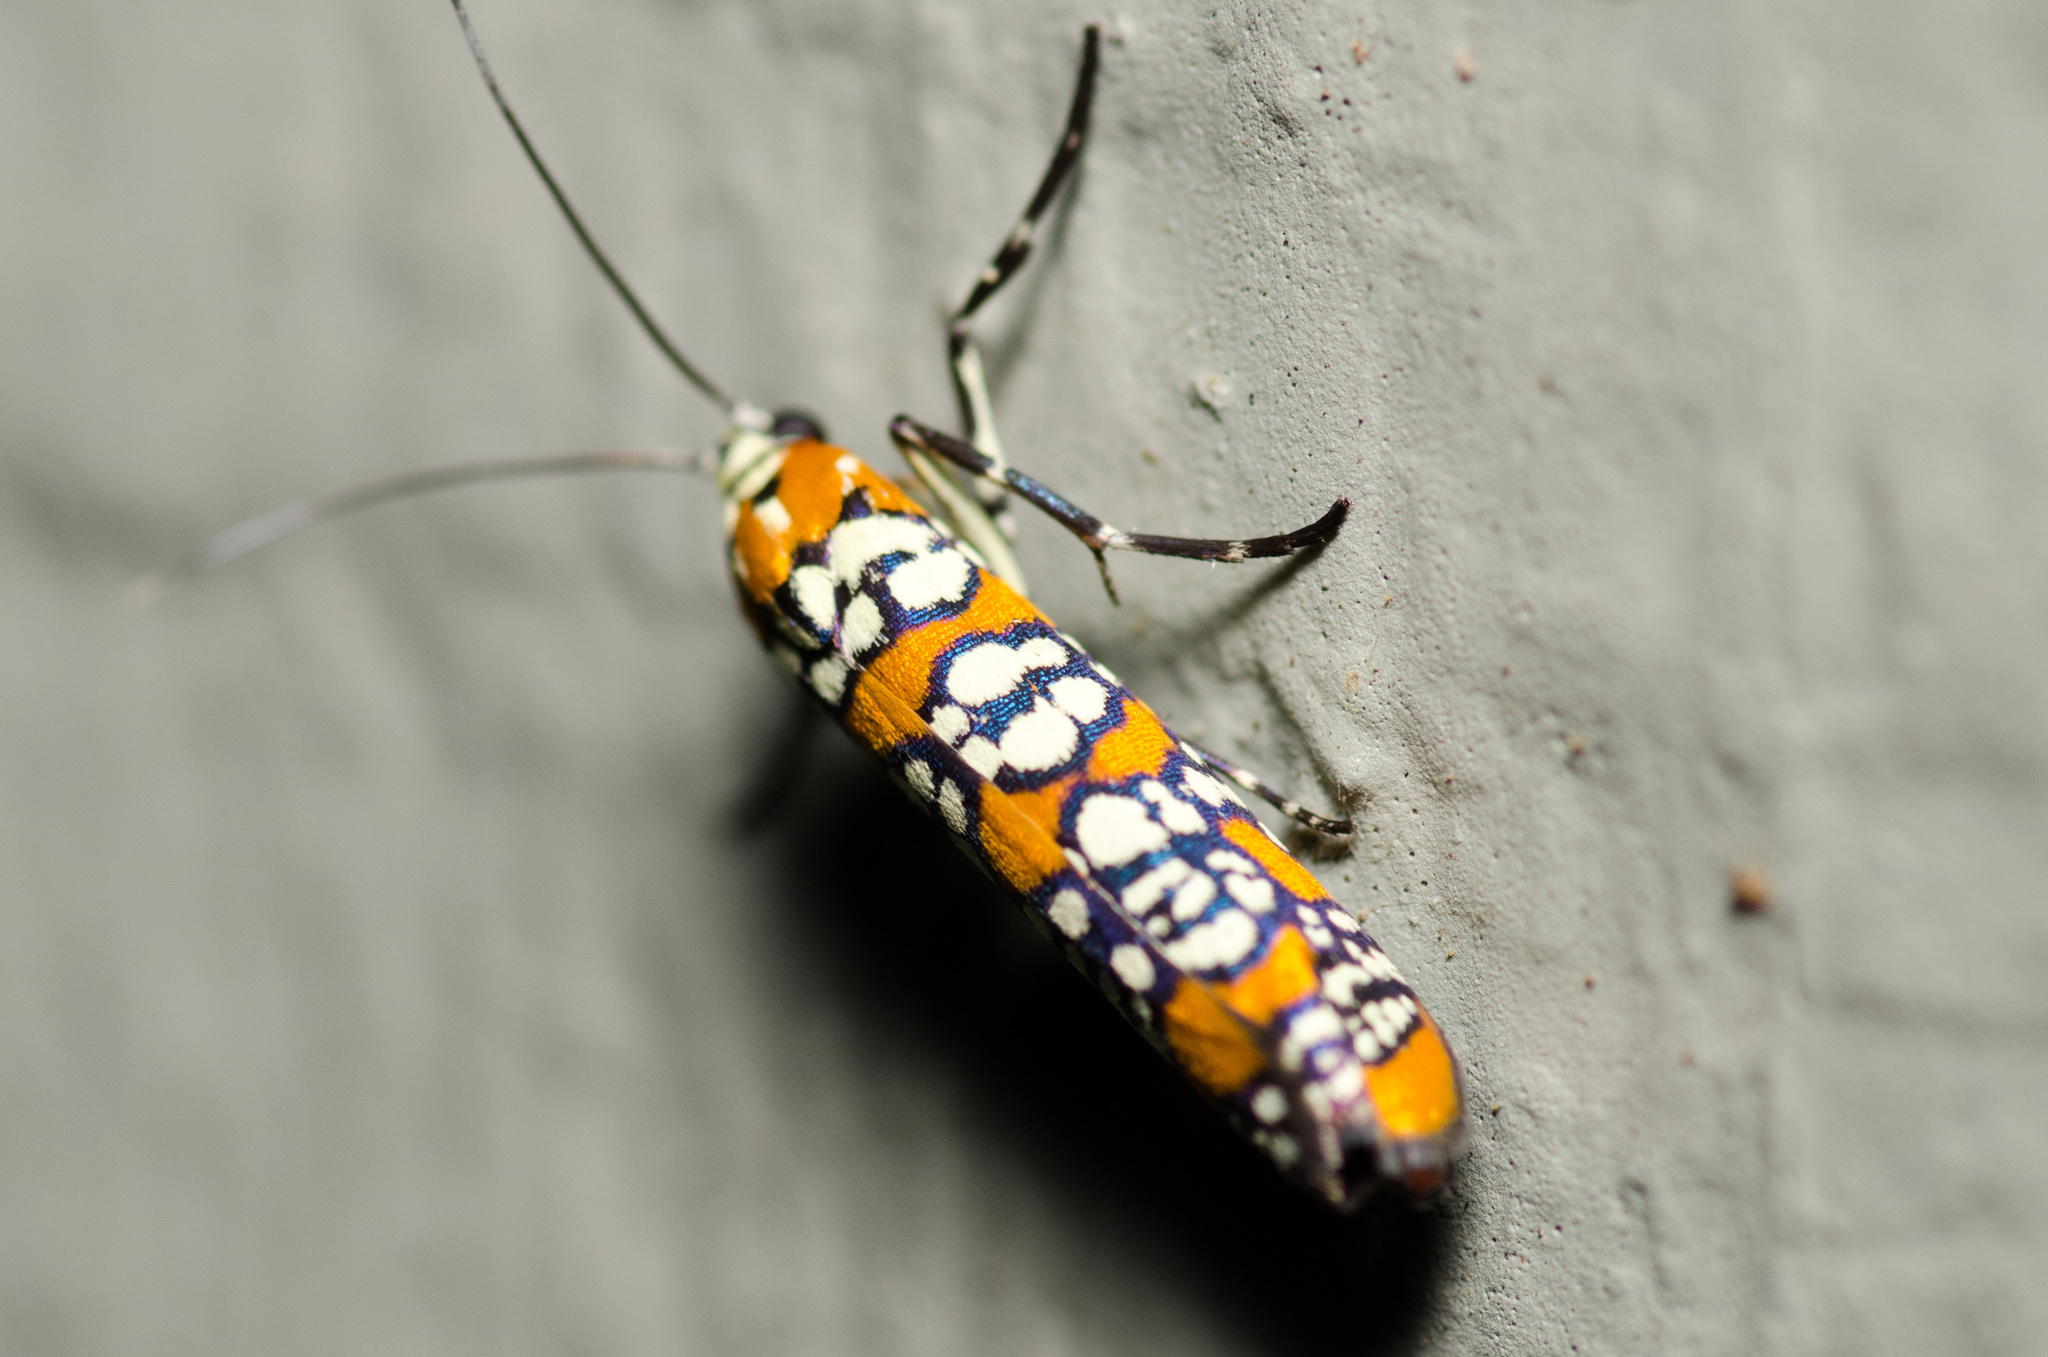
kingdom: Animalia
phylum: Arthropoda
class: Insecta
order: Lepidoptera
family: Attevidae
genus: Atteva
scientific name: Atteva punctella
